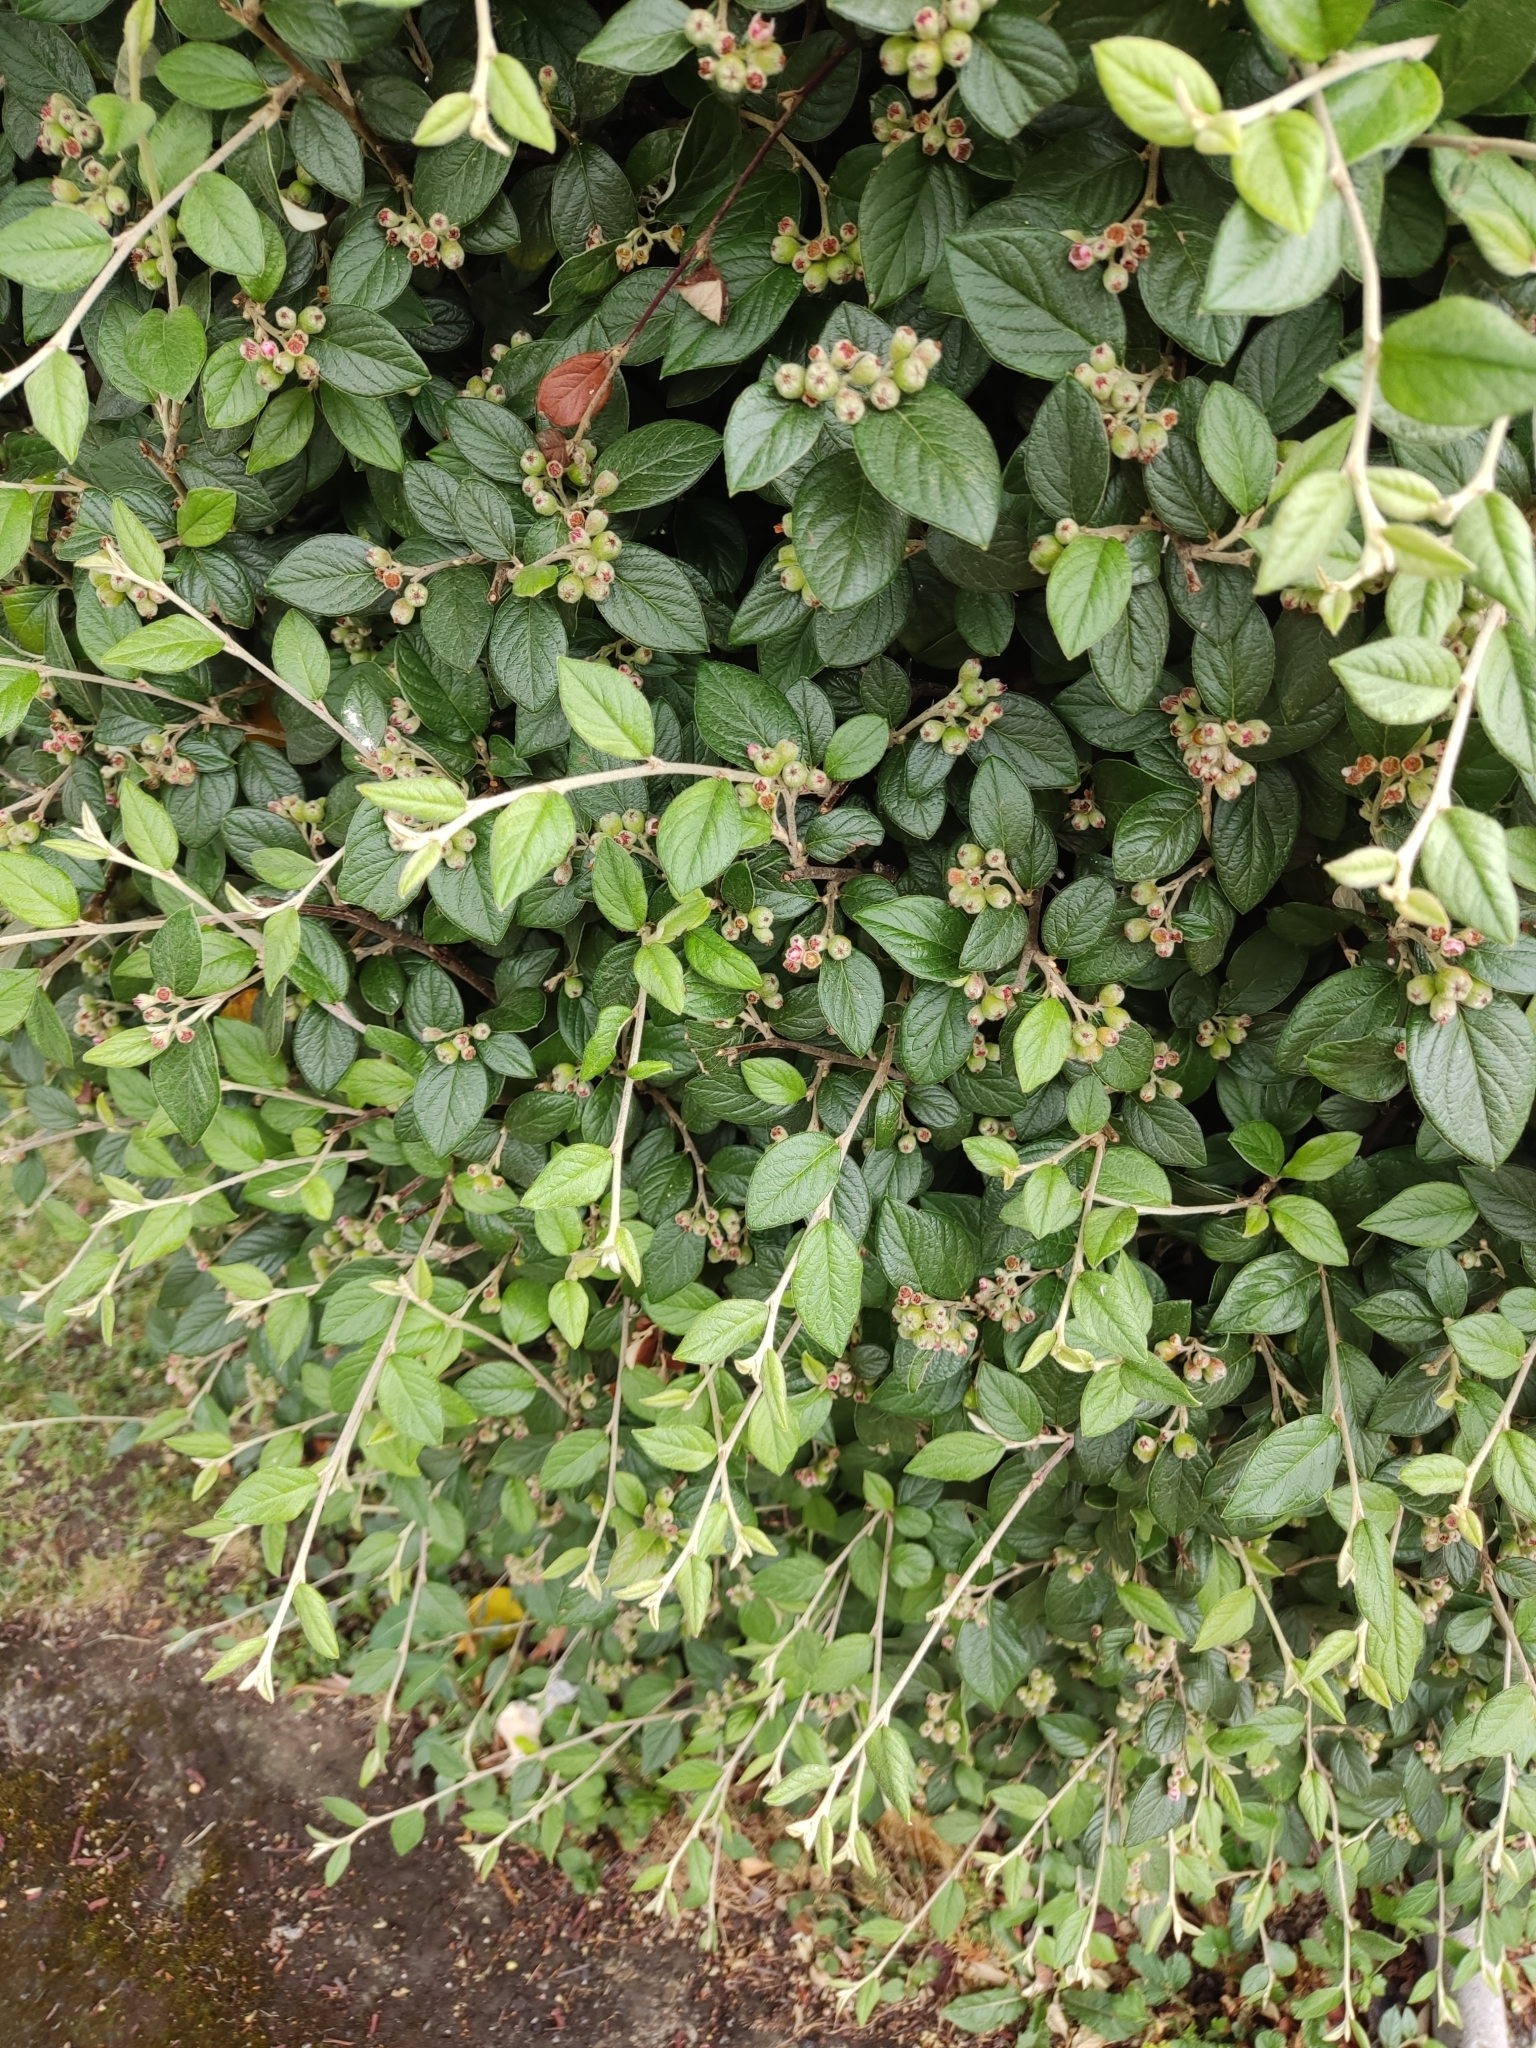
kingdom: Plantae
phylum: Tracheophyta
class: Magnoliopsida
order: Rosales
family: Rosaceae
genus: Cotoneaster
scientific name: Cotoneaster franchetii
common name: Franchet's cotoneaster
